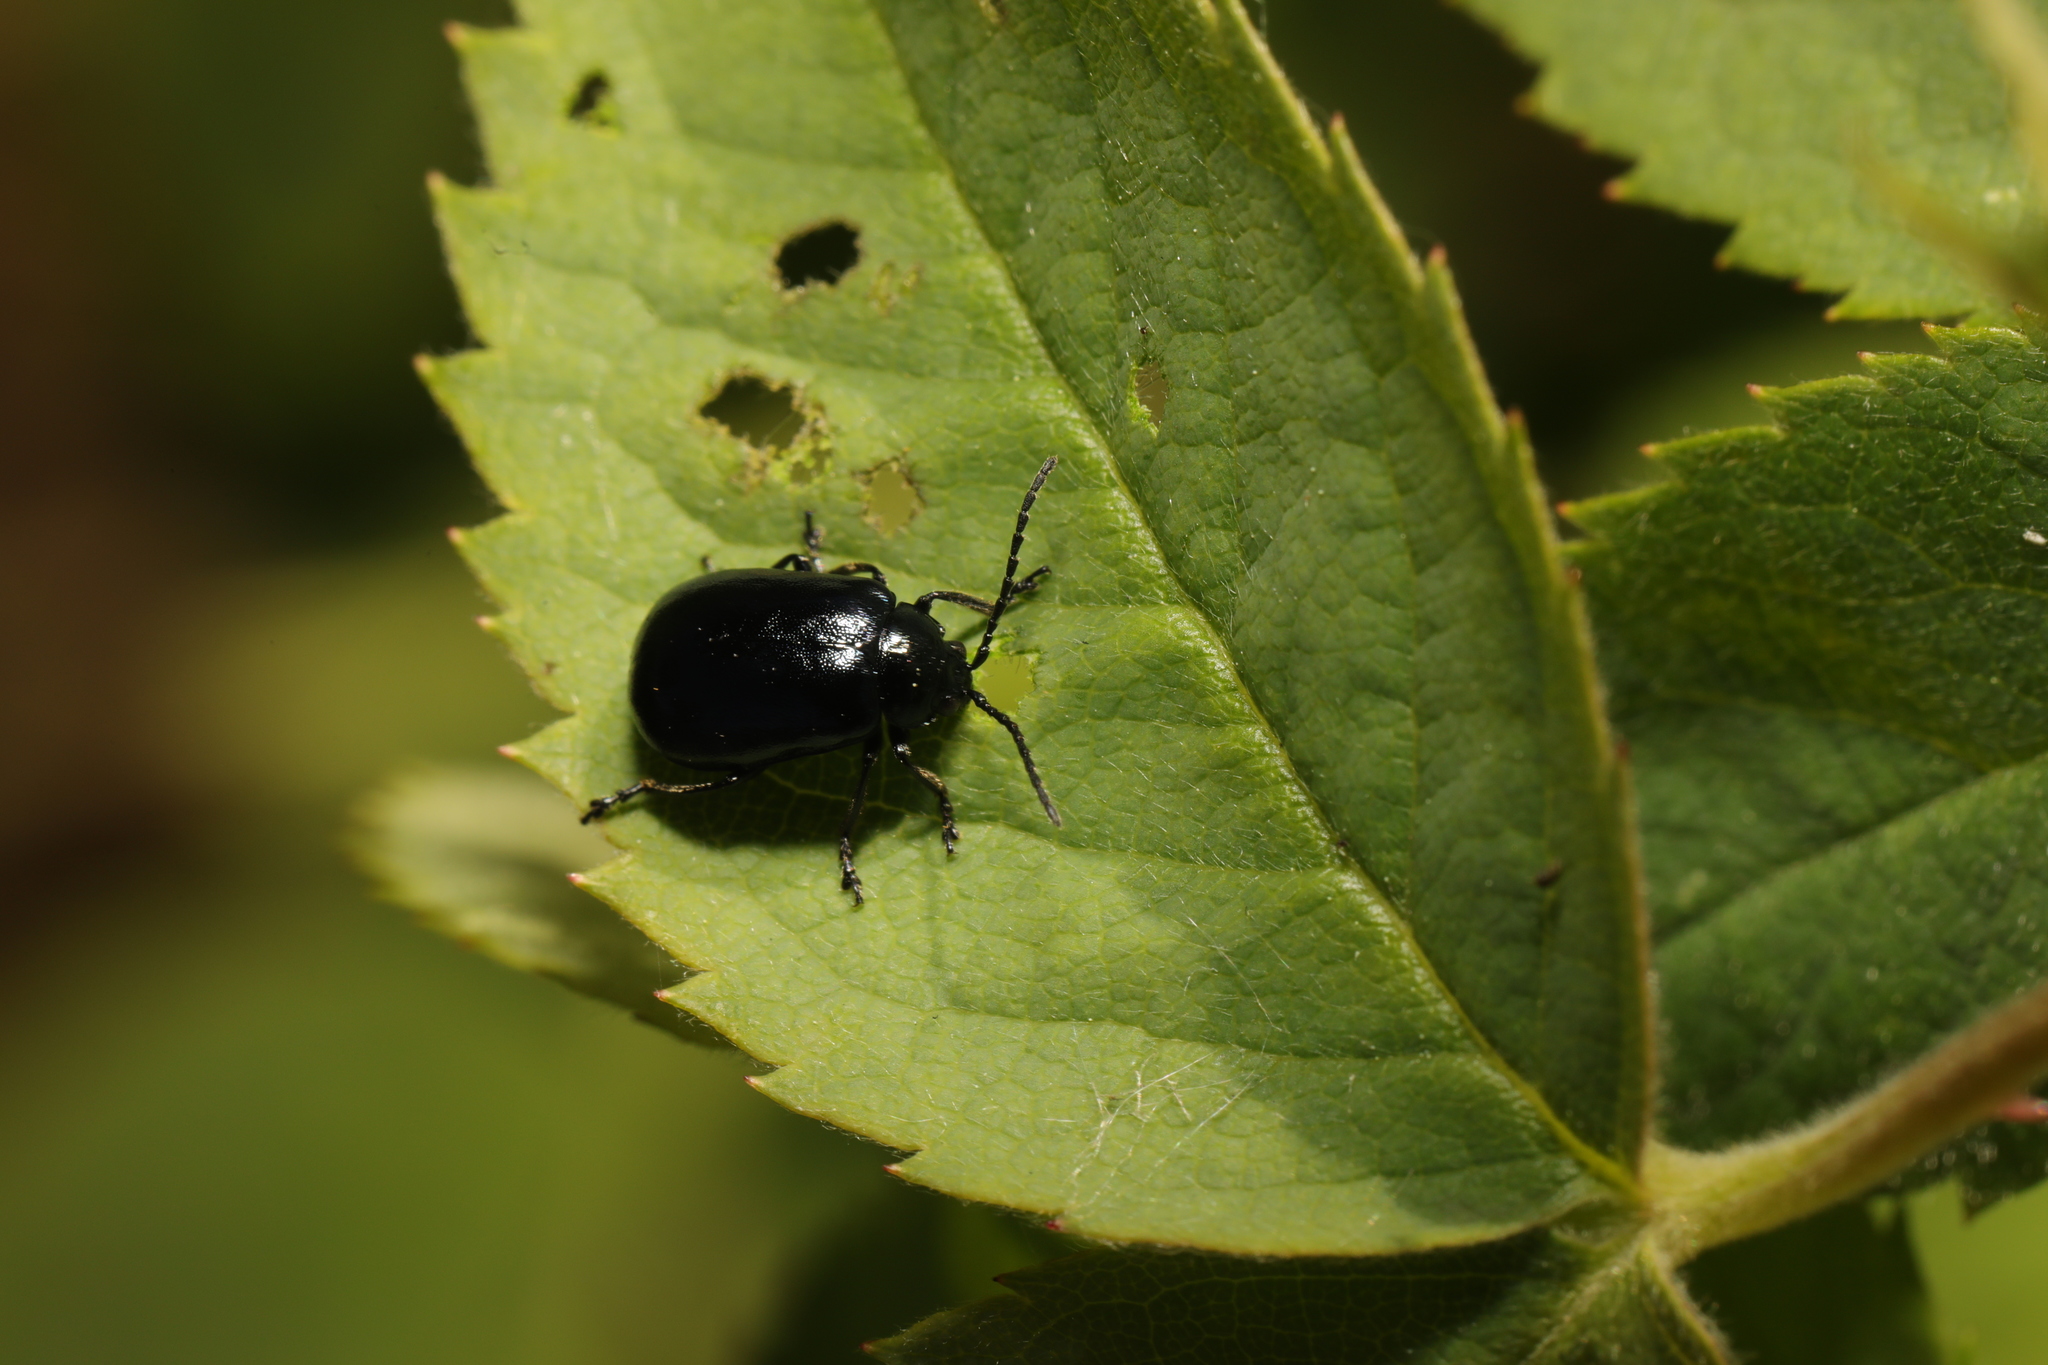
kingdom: Animalia
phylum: Arthropoda
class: Insecta
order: Coleoptera
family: Chrysomelidae
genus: Agelastica
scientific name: Agelastica alni
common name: Alder leaf beetle
